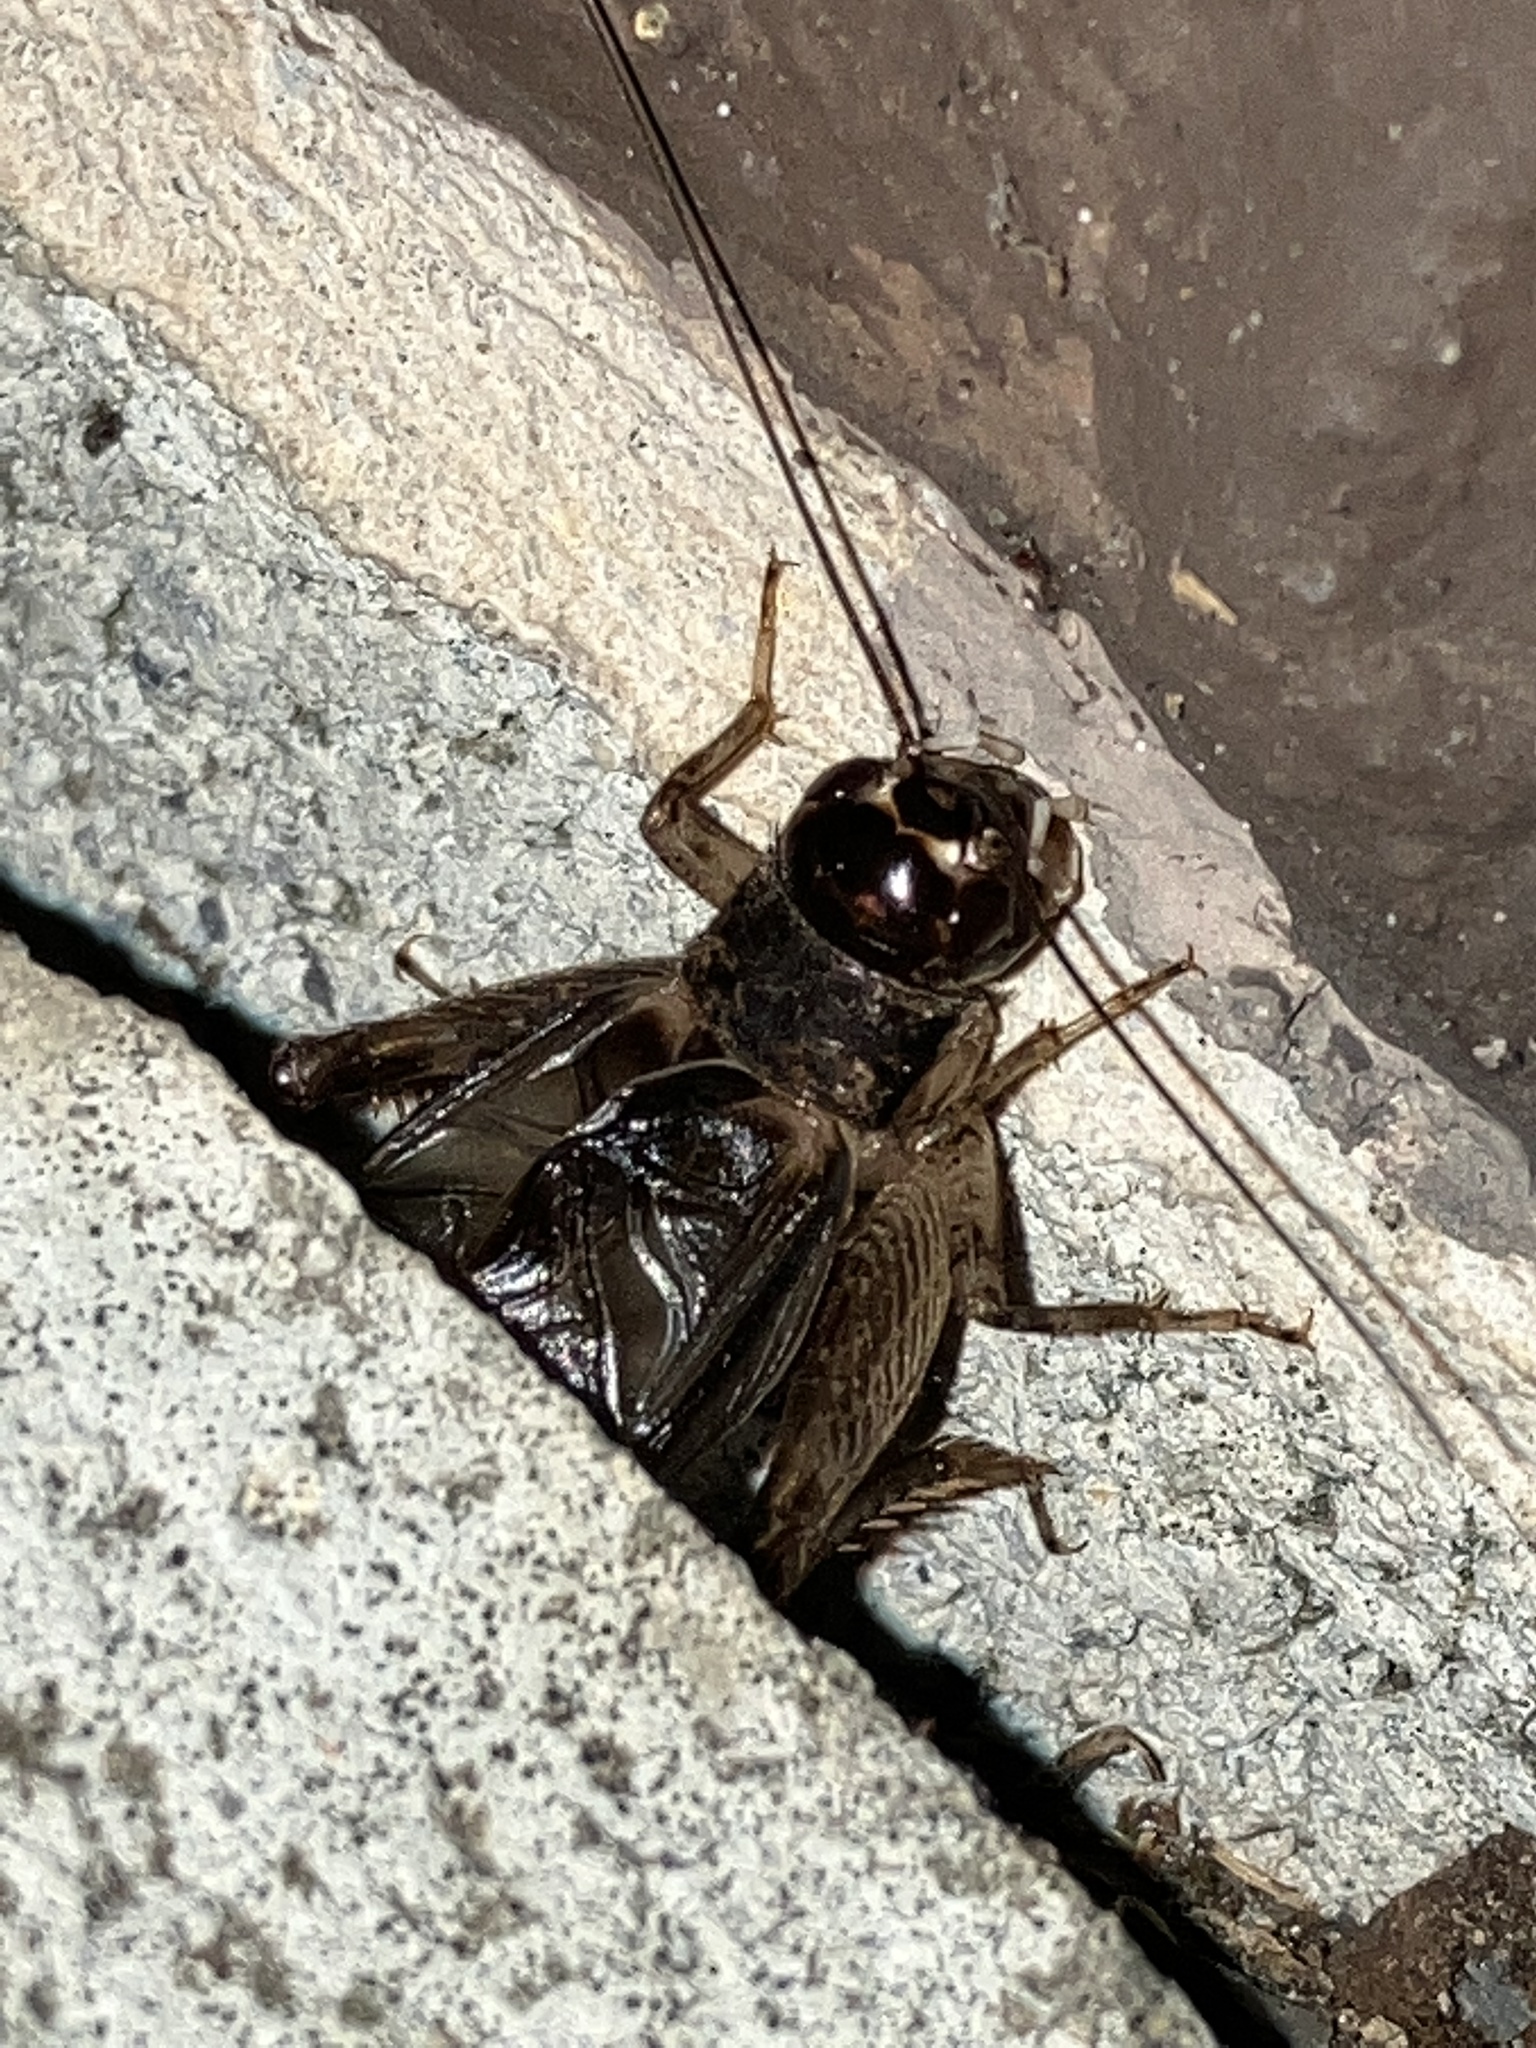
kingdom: Animalia
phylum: Arthropoda
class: Insecta
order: Orthoptera
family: Gryllidae
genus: Velarifictorus
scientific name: Velarifictorus micado
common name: Japanese burrowing cricket
